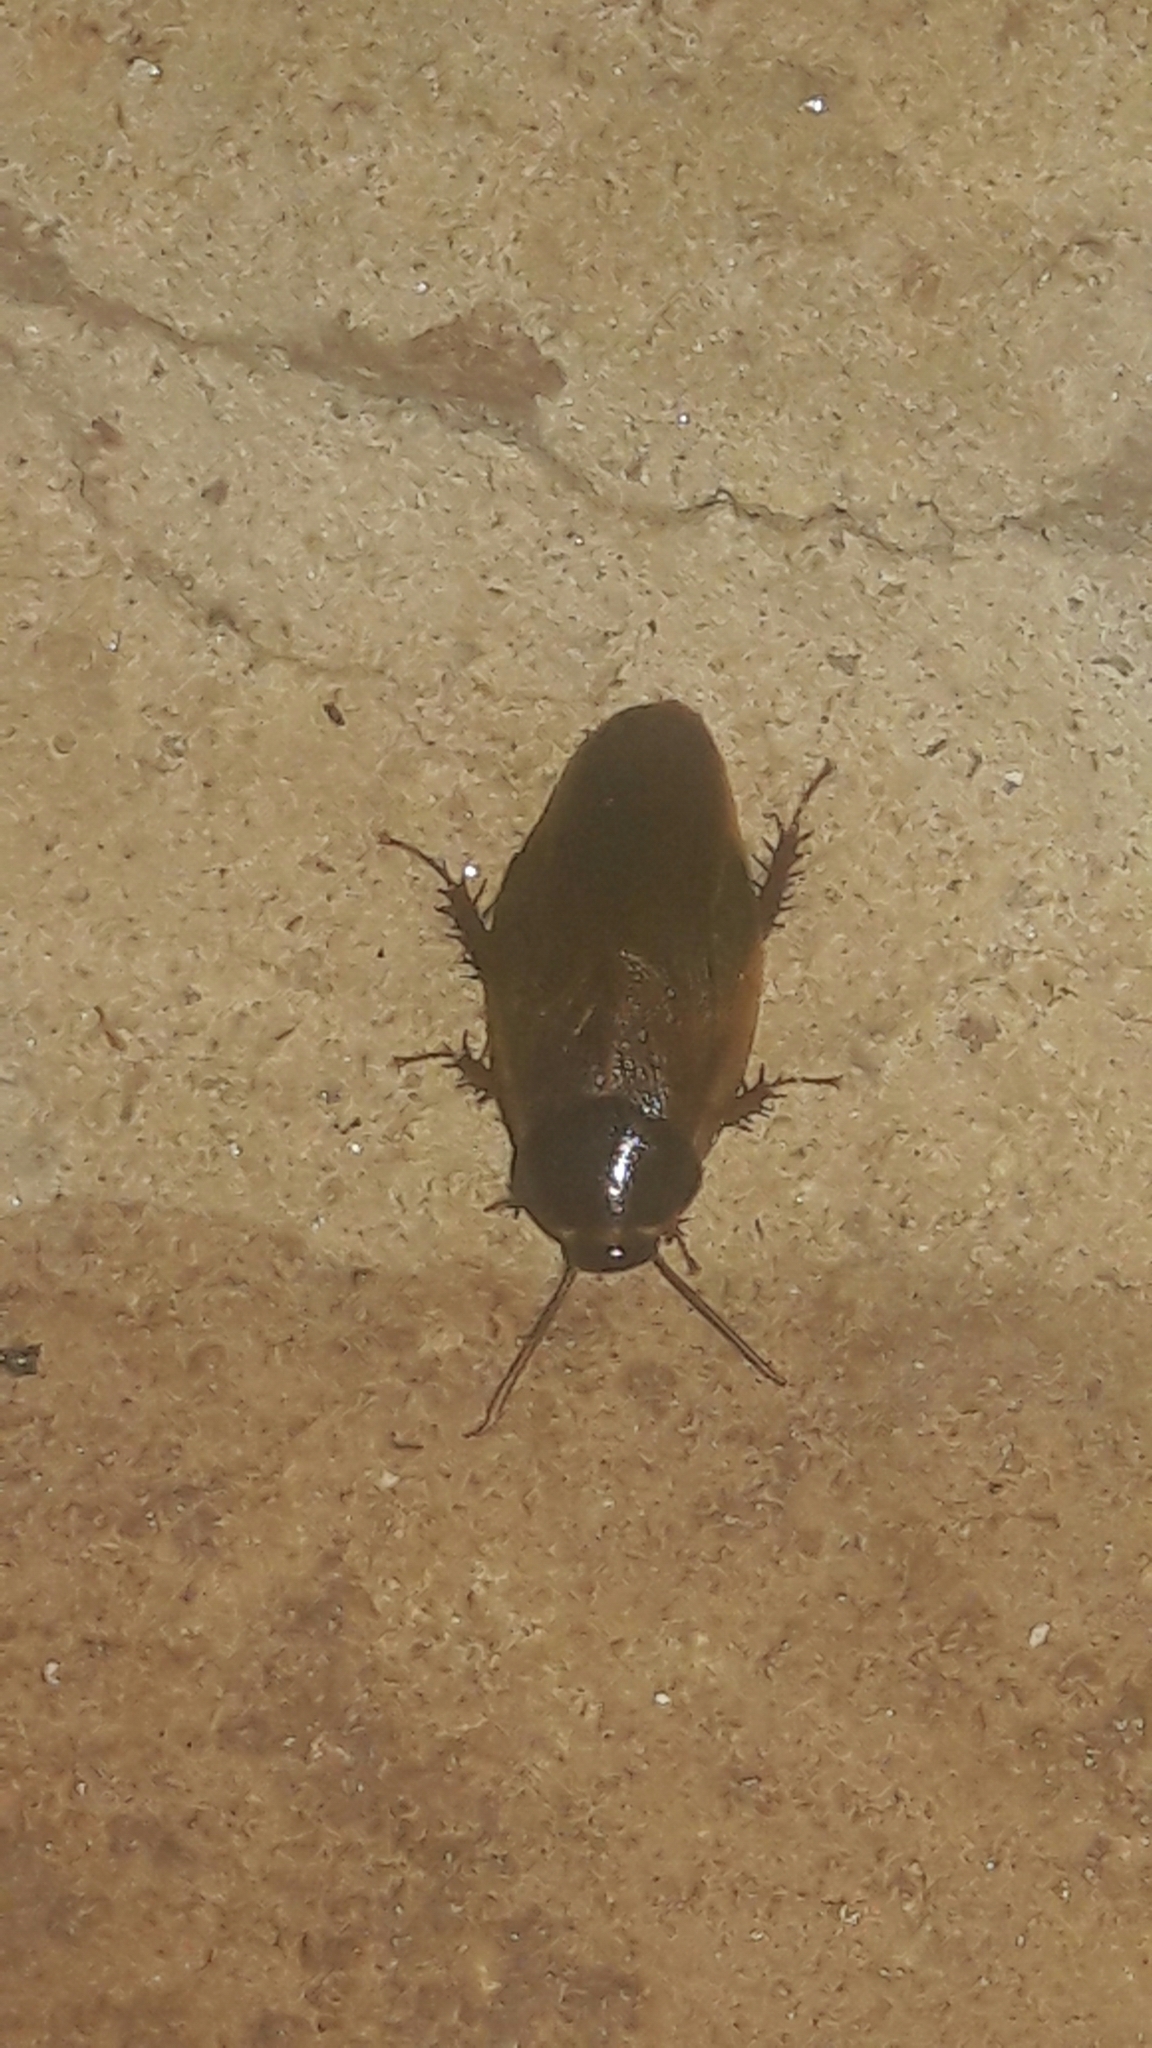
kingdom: Animalia
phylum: Arthropoda
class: Insecta
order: Blattodea
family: Blaberidae
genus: Pycnoscelus
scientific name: Pycnoscelus surinamensis
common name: Surinam cockroach
